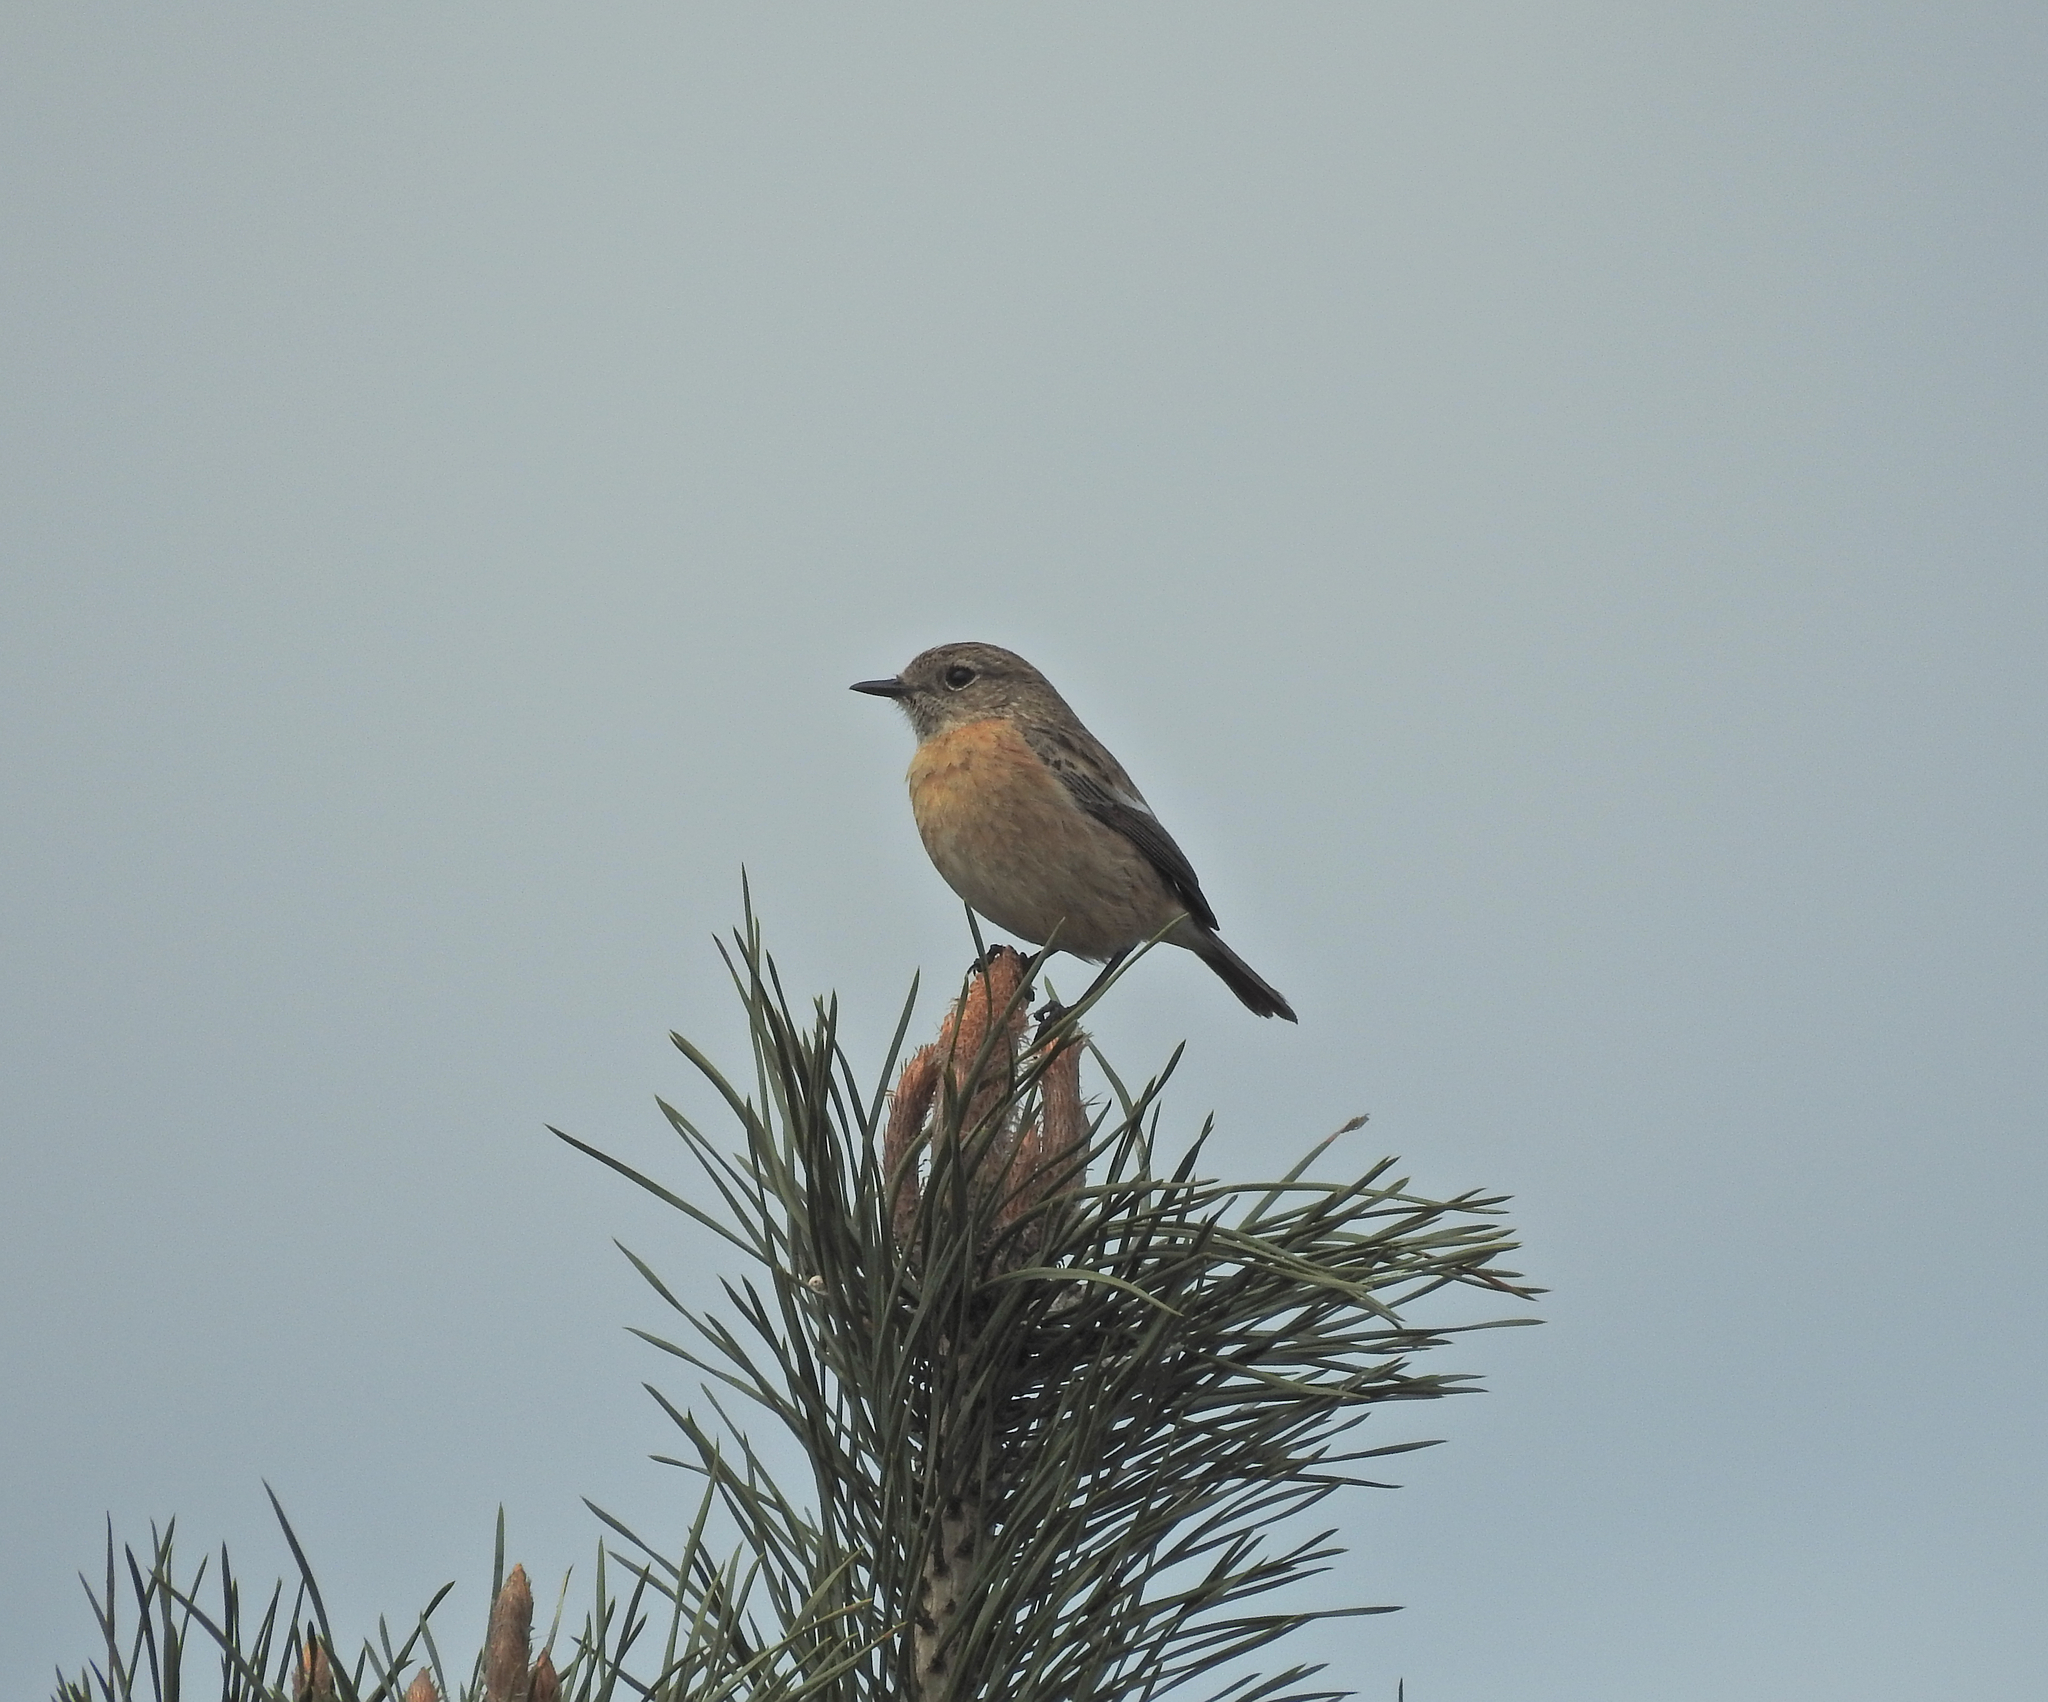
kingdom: Animalia
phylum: Chordata
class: Aves
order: Passeriformes
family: Muscicapidae
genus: Saxicola
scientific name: Saxicola rubicola
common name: European stonechat
